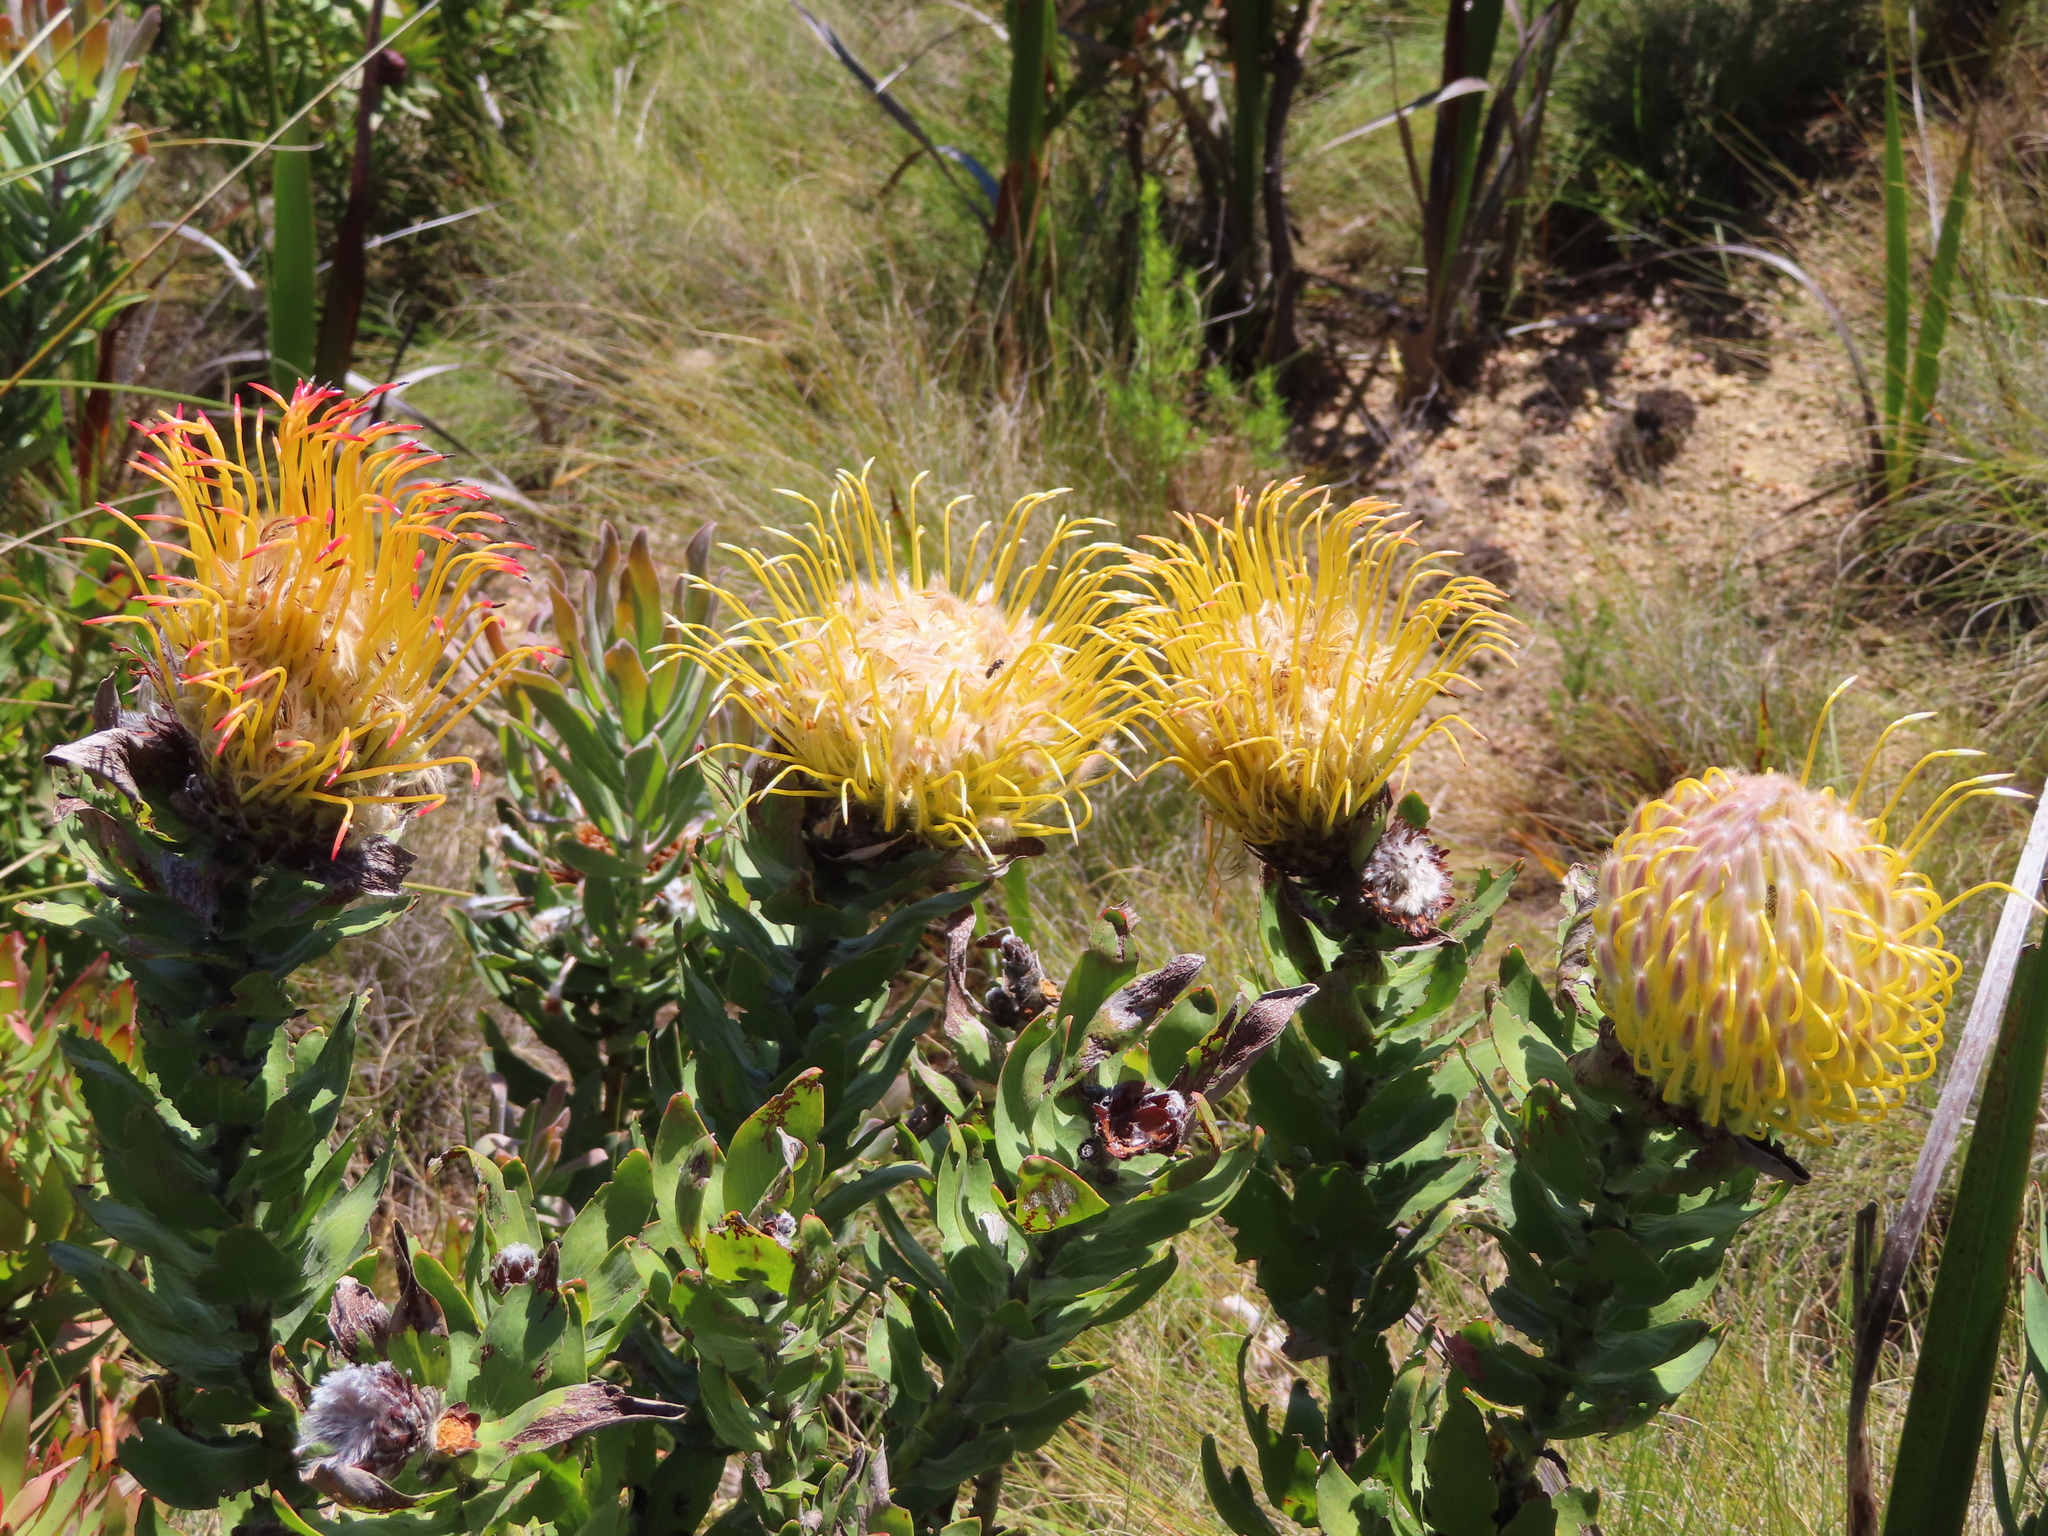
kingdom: Plantae
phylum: Tracheophyta
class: Magnoliopsida
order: Proteales
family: Proteaceae
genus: Leucospermum
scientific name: Leucospermum gueinzii
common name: Kloof fountain pincushion
